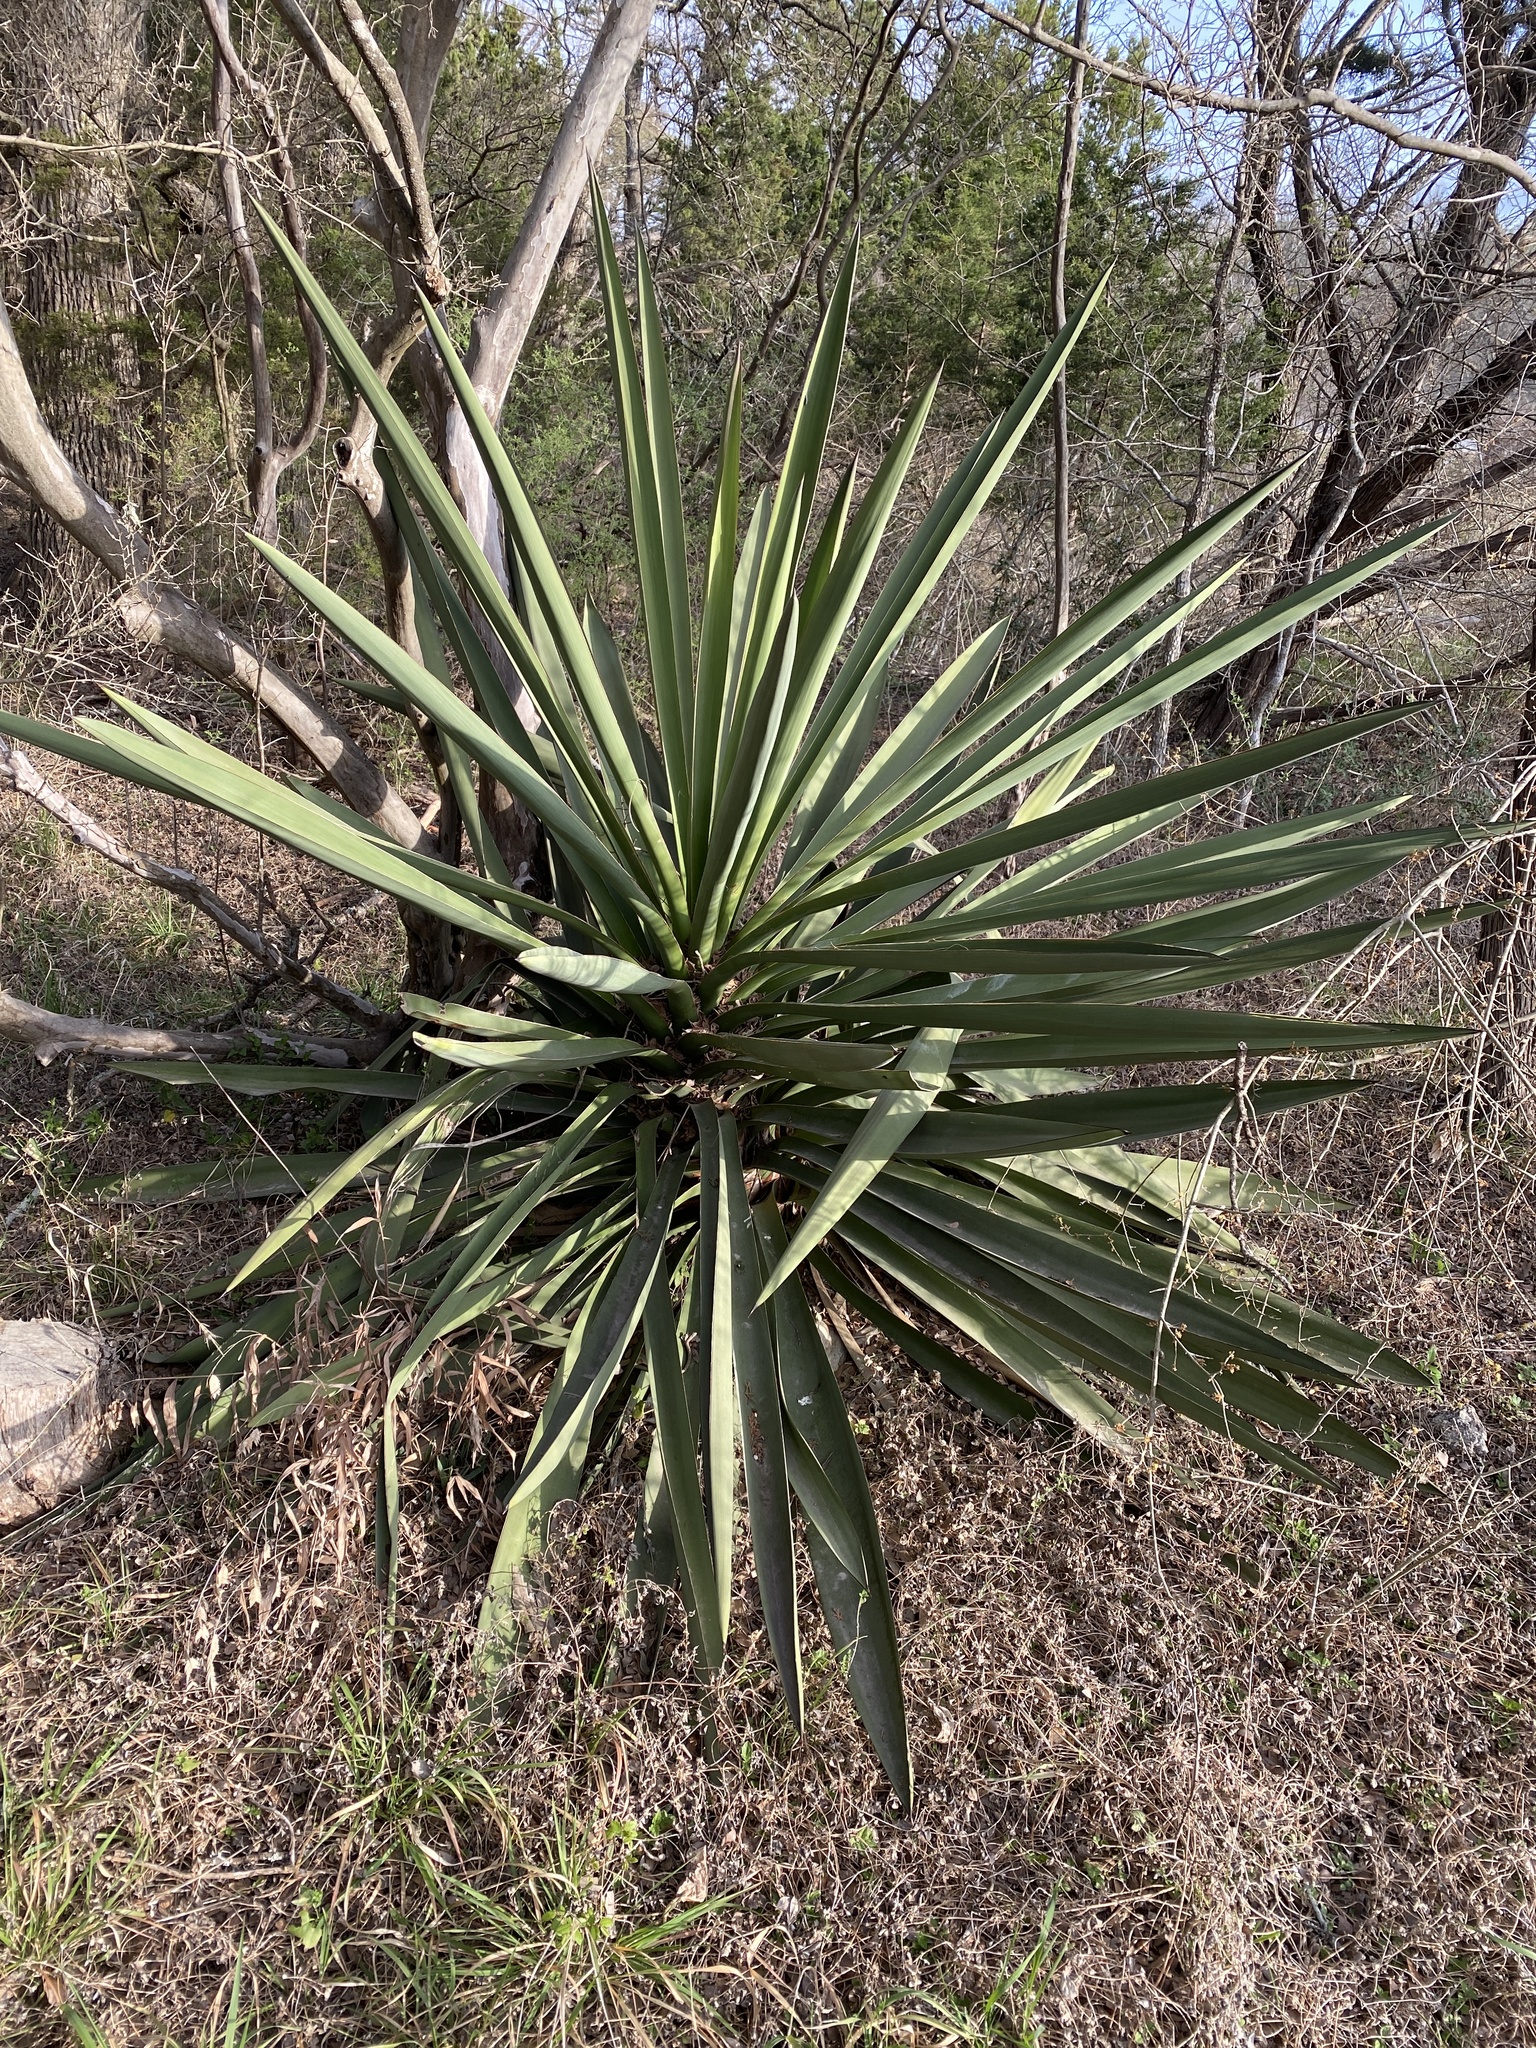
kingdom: Plantae
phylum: Tracheophyta
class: Liliopsida
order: Asparagales
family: Asparagaceae
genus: Yucca
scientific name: Yucca treculiana
